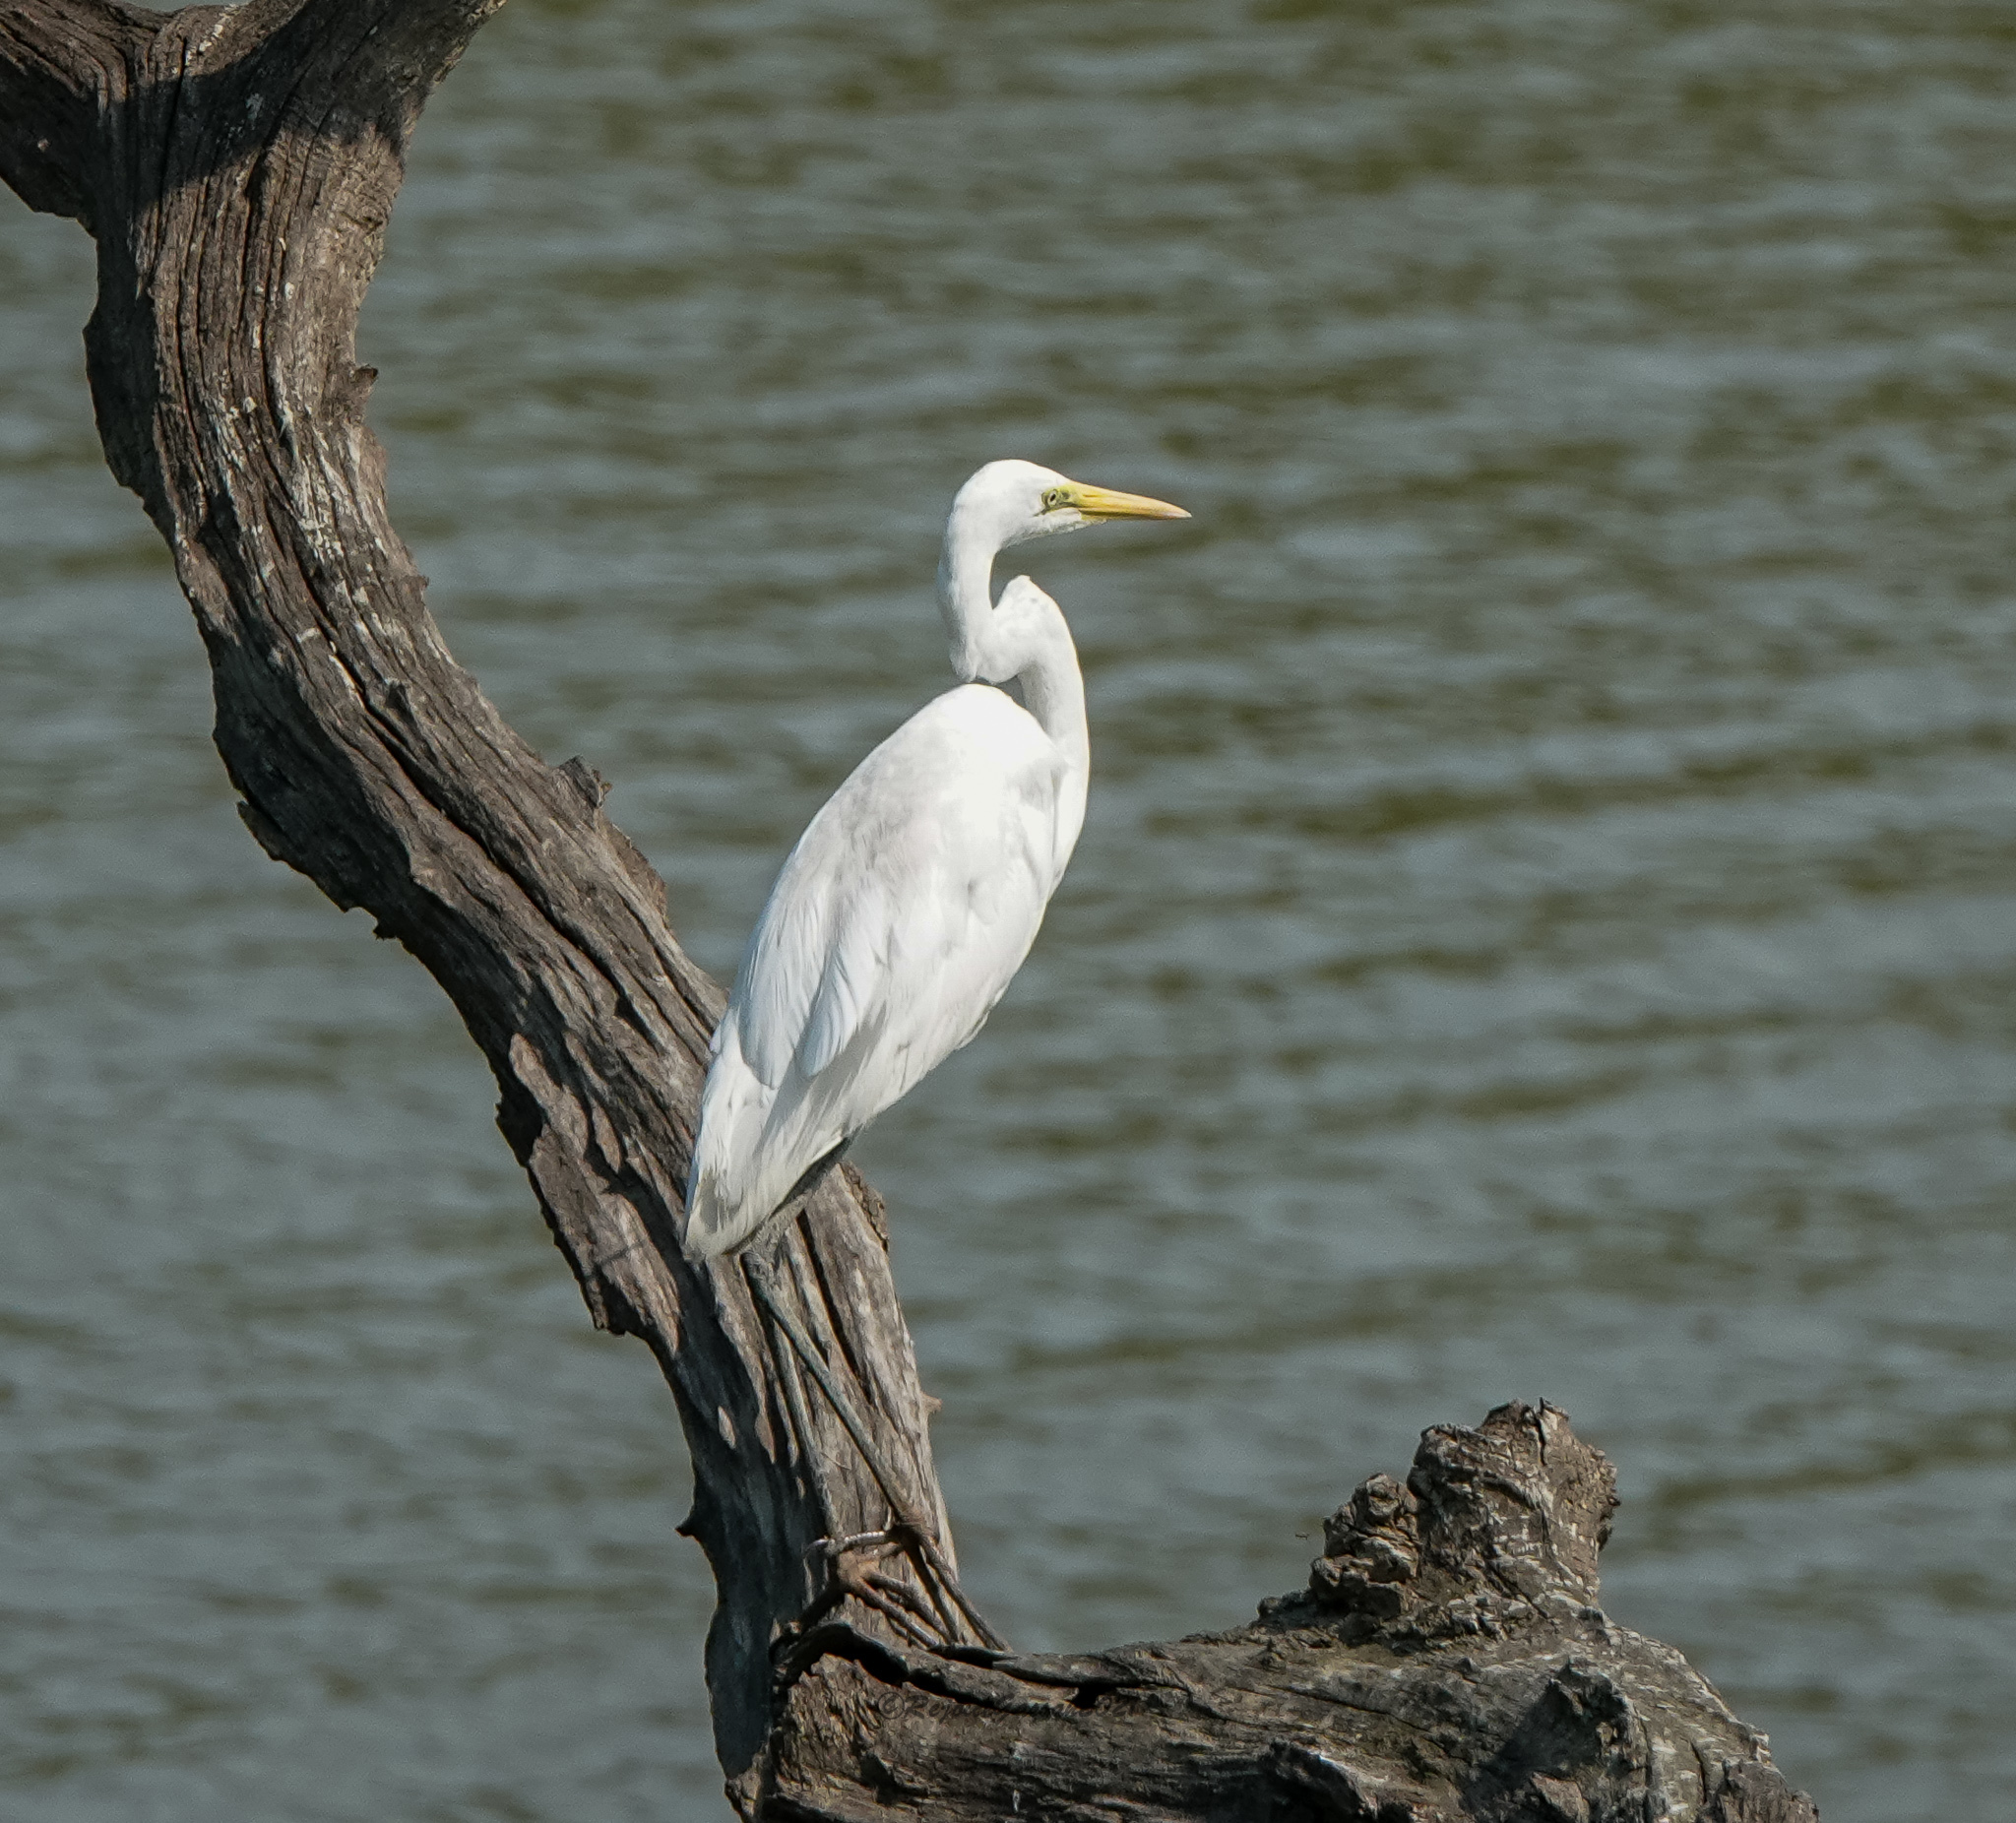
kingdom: Animalia
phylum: Chordata
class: Aves
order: Pelecaniformes
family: Ardeidae
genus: Ardea
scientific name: Ardea alba
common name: Great egret
